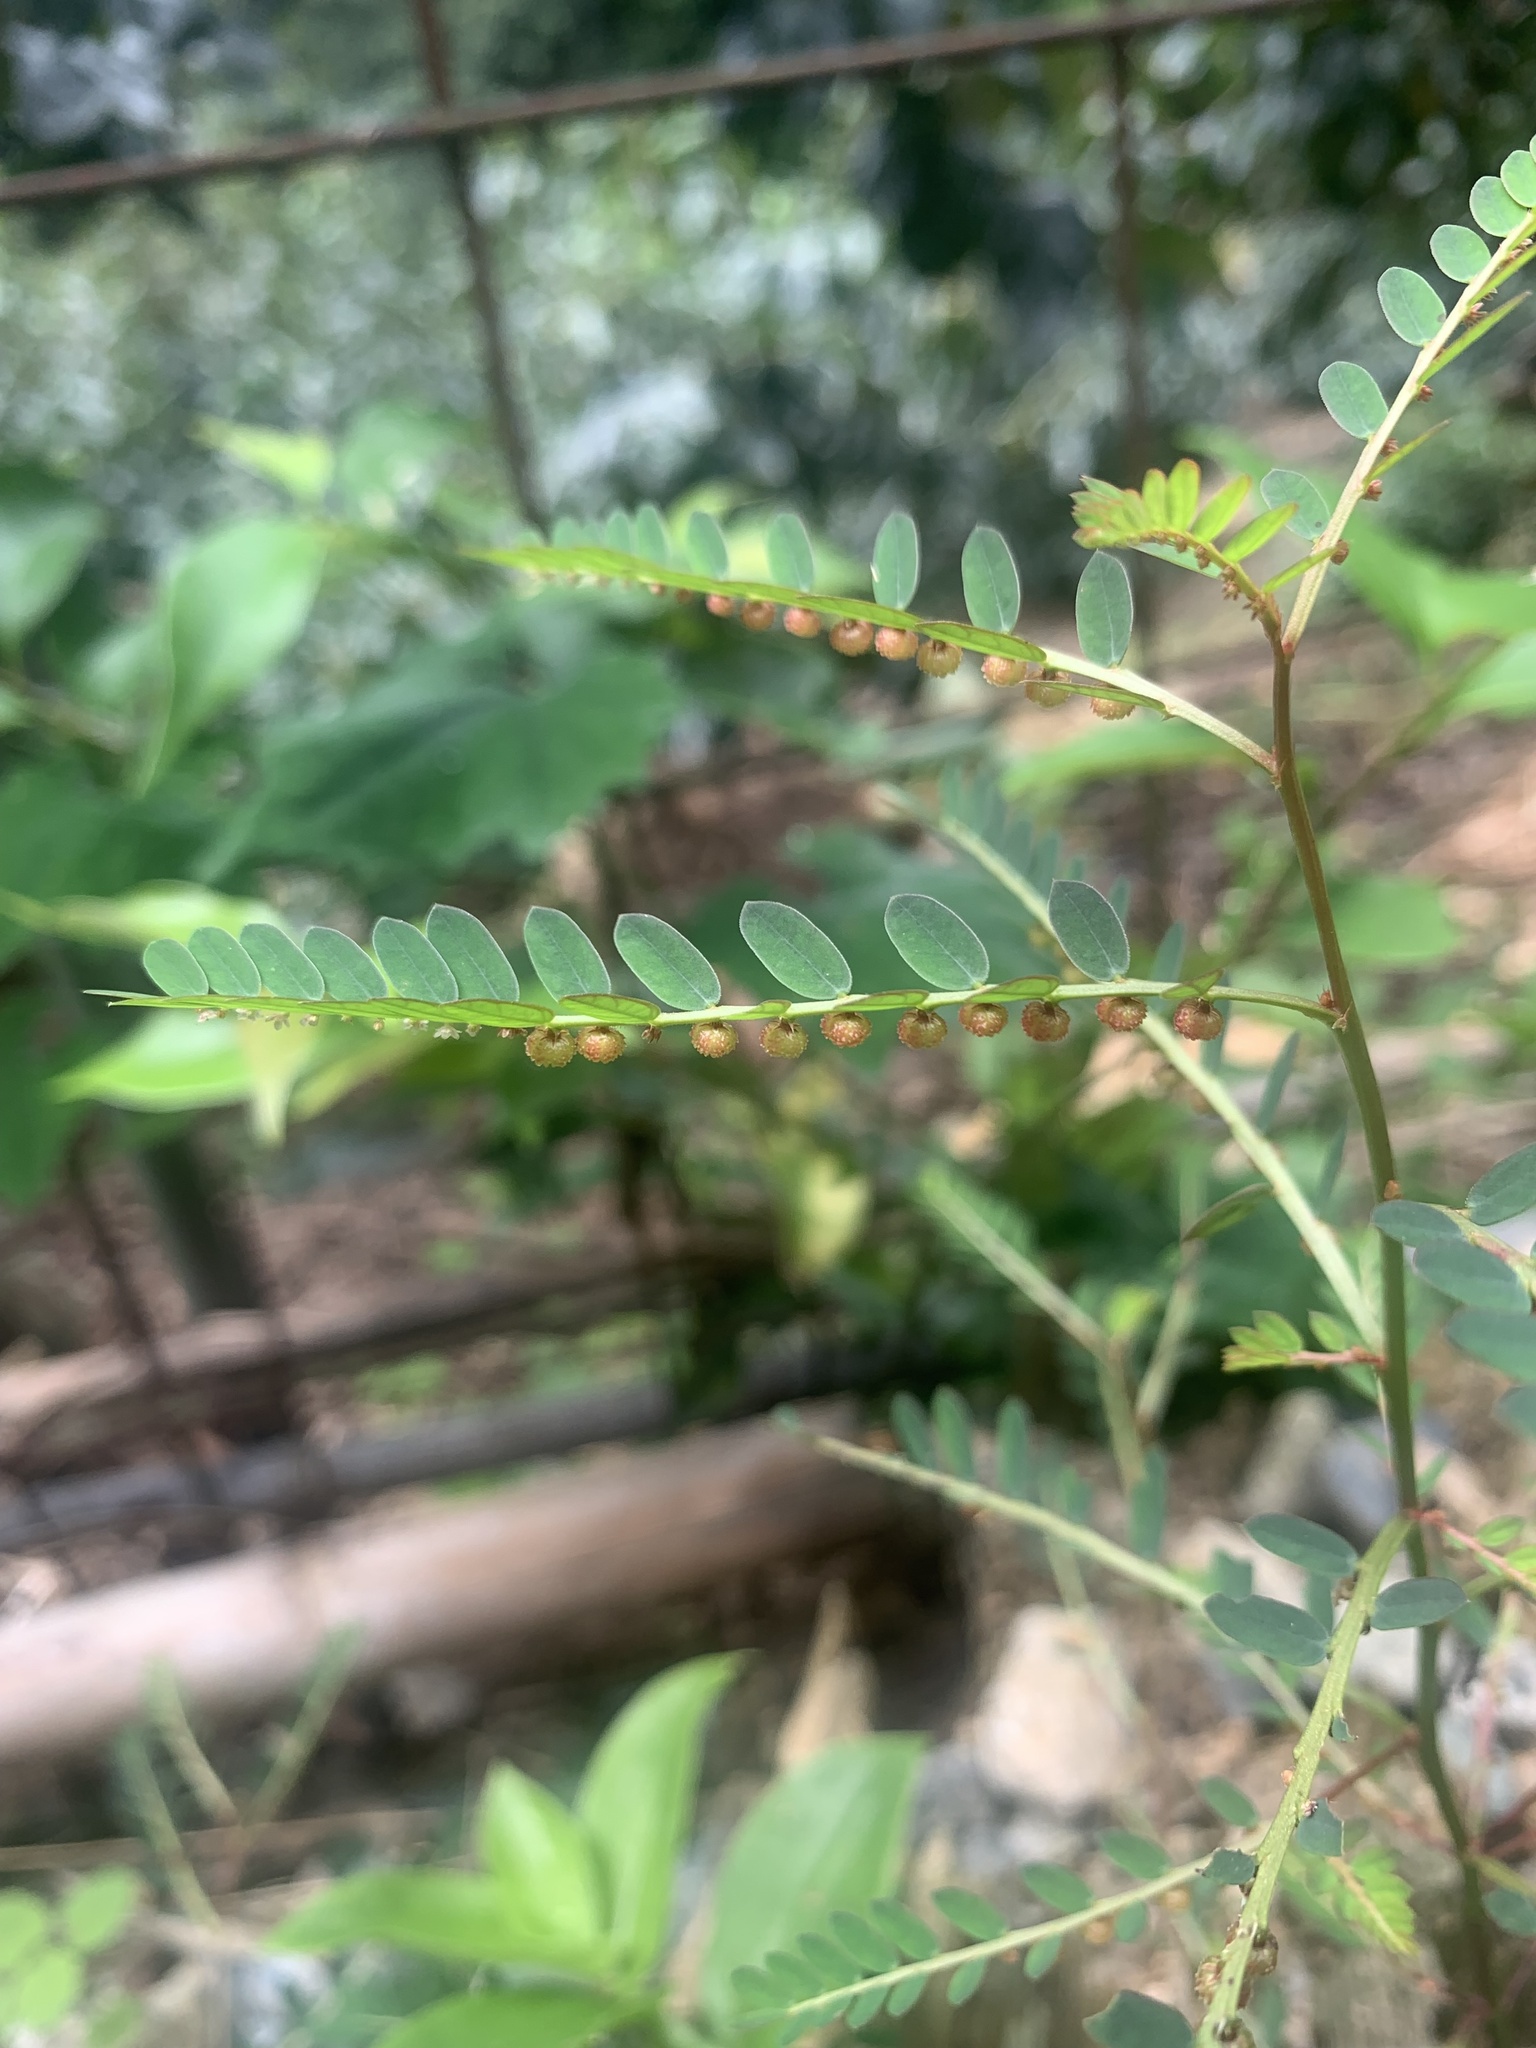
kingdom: Plantae
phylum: Tracheophyta
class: Magnoliopsida
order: Malpighiales
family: Phyllanthaceae
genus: Phyllanthus
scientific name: Phyllanthus urinaria
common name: Chamber bitter
